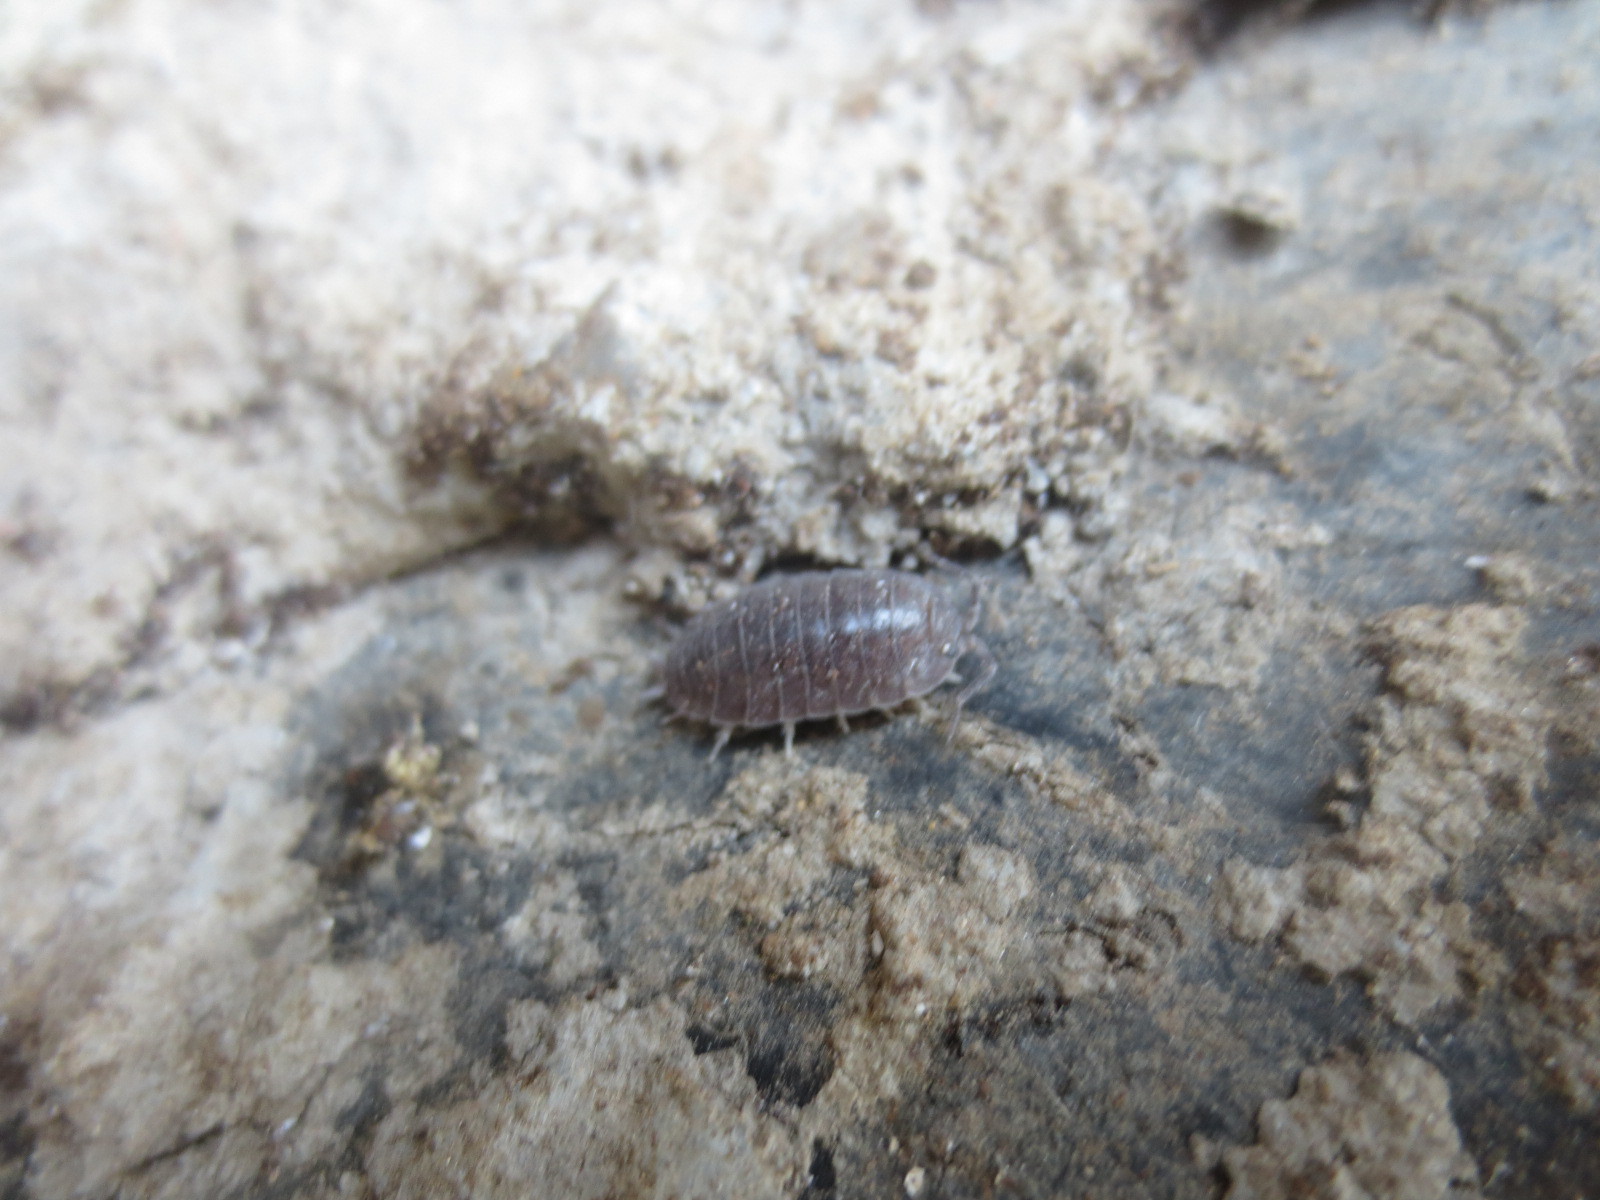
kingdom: Animalia
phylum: Arthropoda
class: Malacostraca
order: Isopoda
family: Porcellionidae
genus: Porcellio
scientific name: Porcellio laevis
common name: Swift woodlouse
